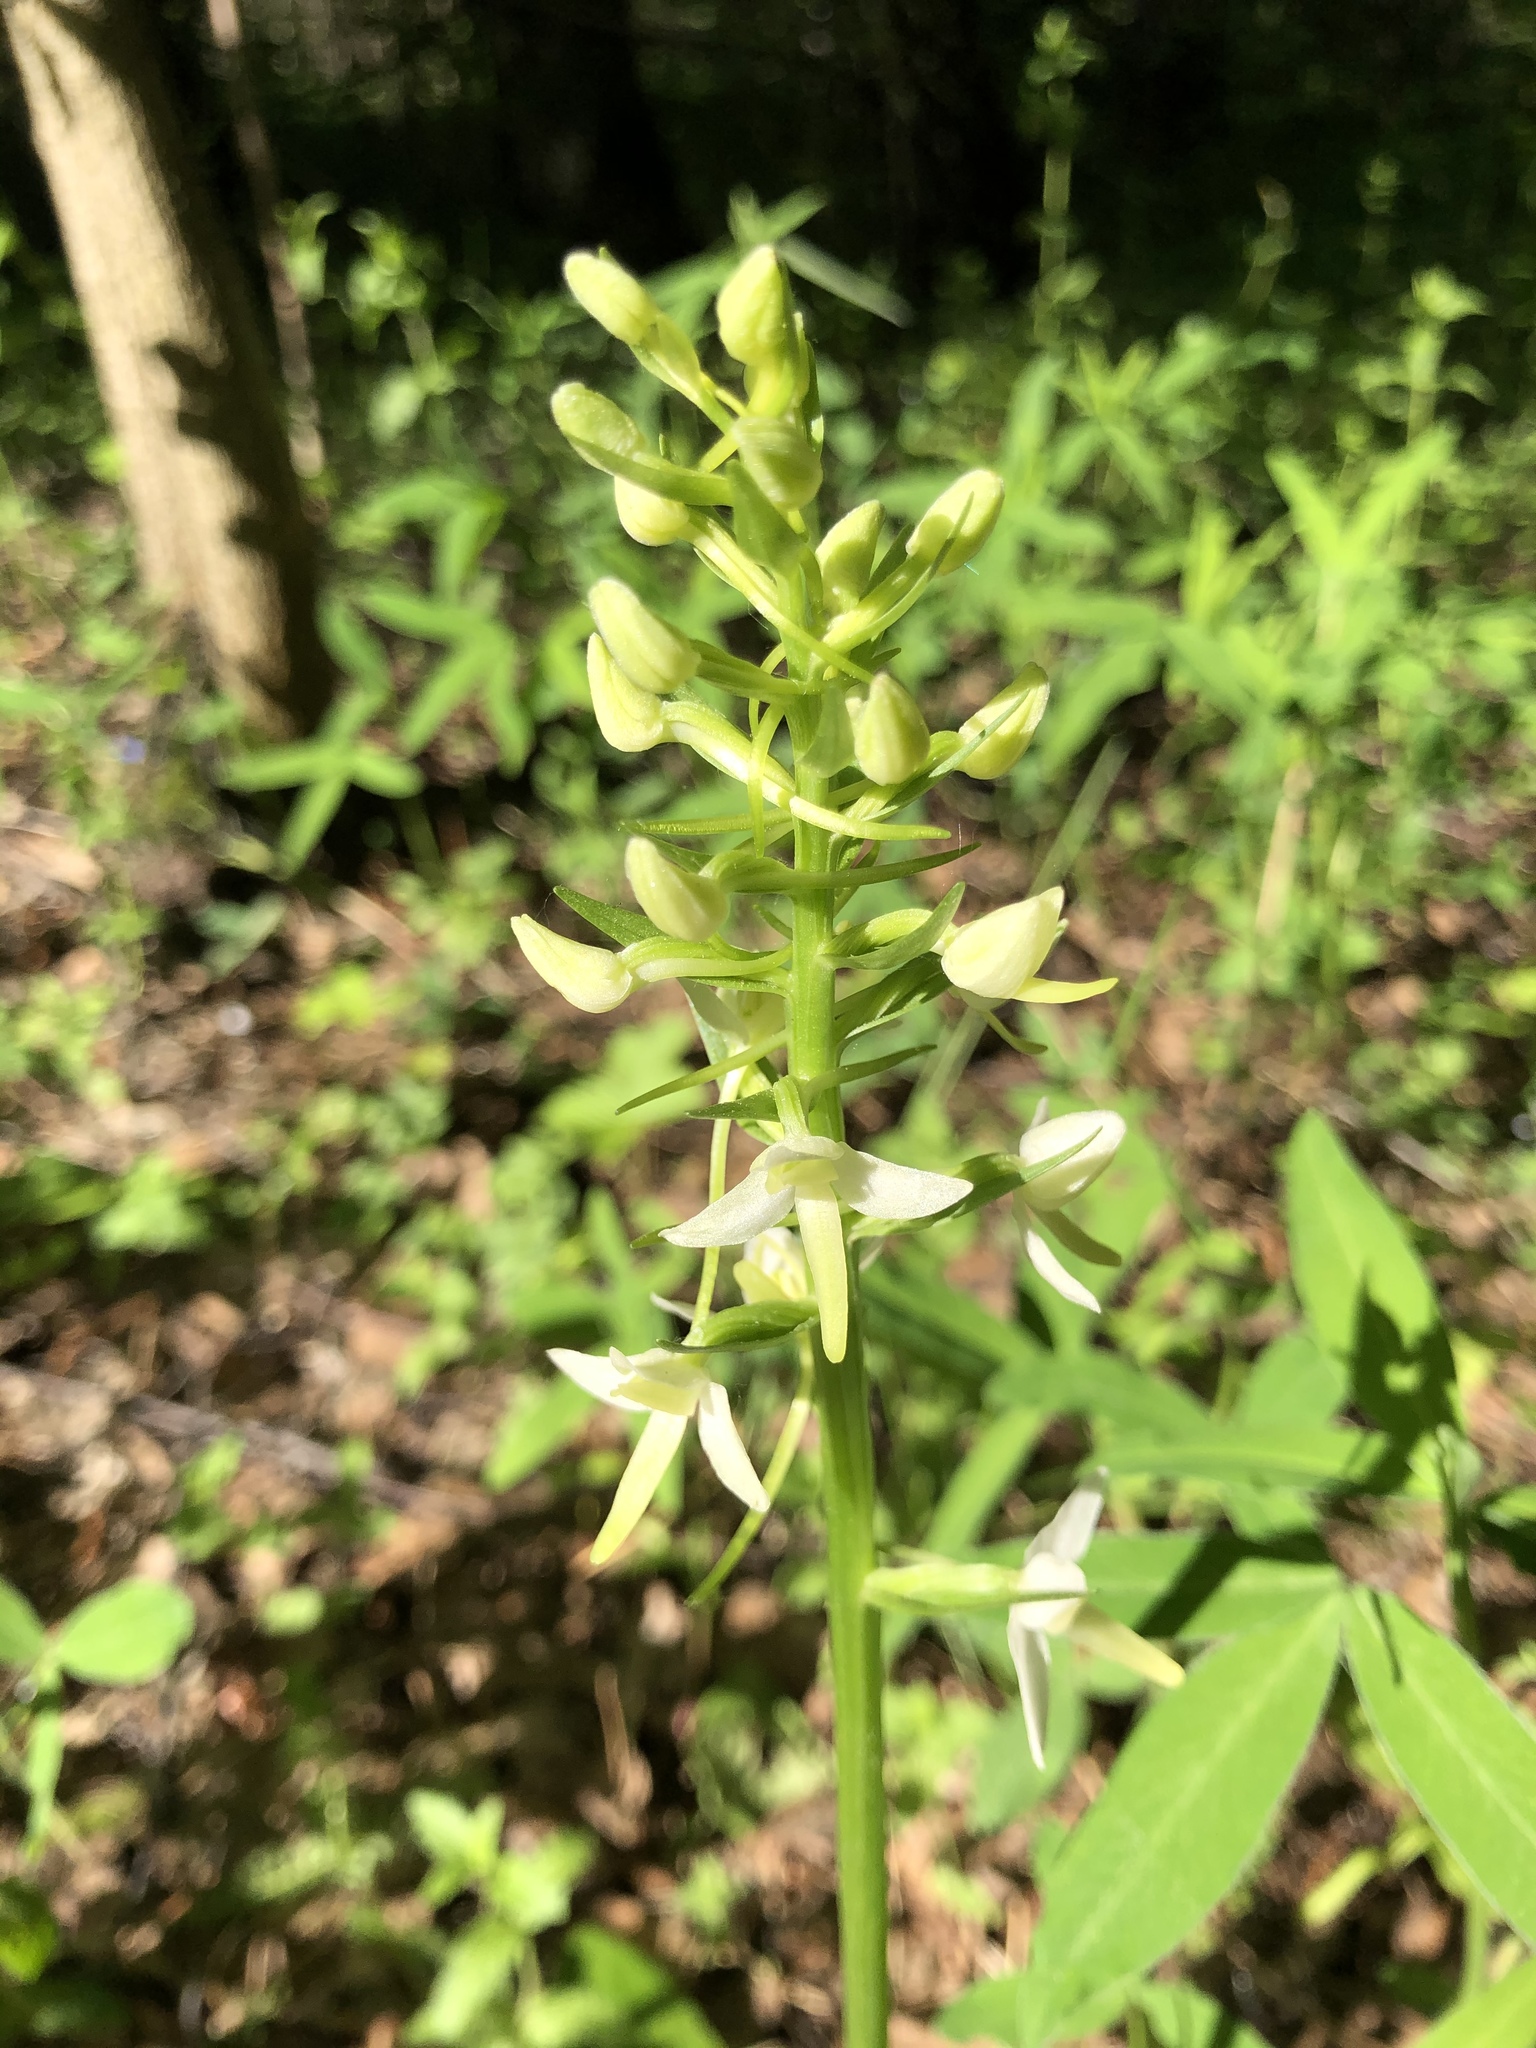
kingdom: Plantae
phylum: Tracheophyta
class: Liliopsida
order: Asparagales
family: Orchidaceae
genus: Platanthera
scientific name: Platanthera bifolia
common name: Lesser butterfly-orchid
